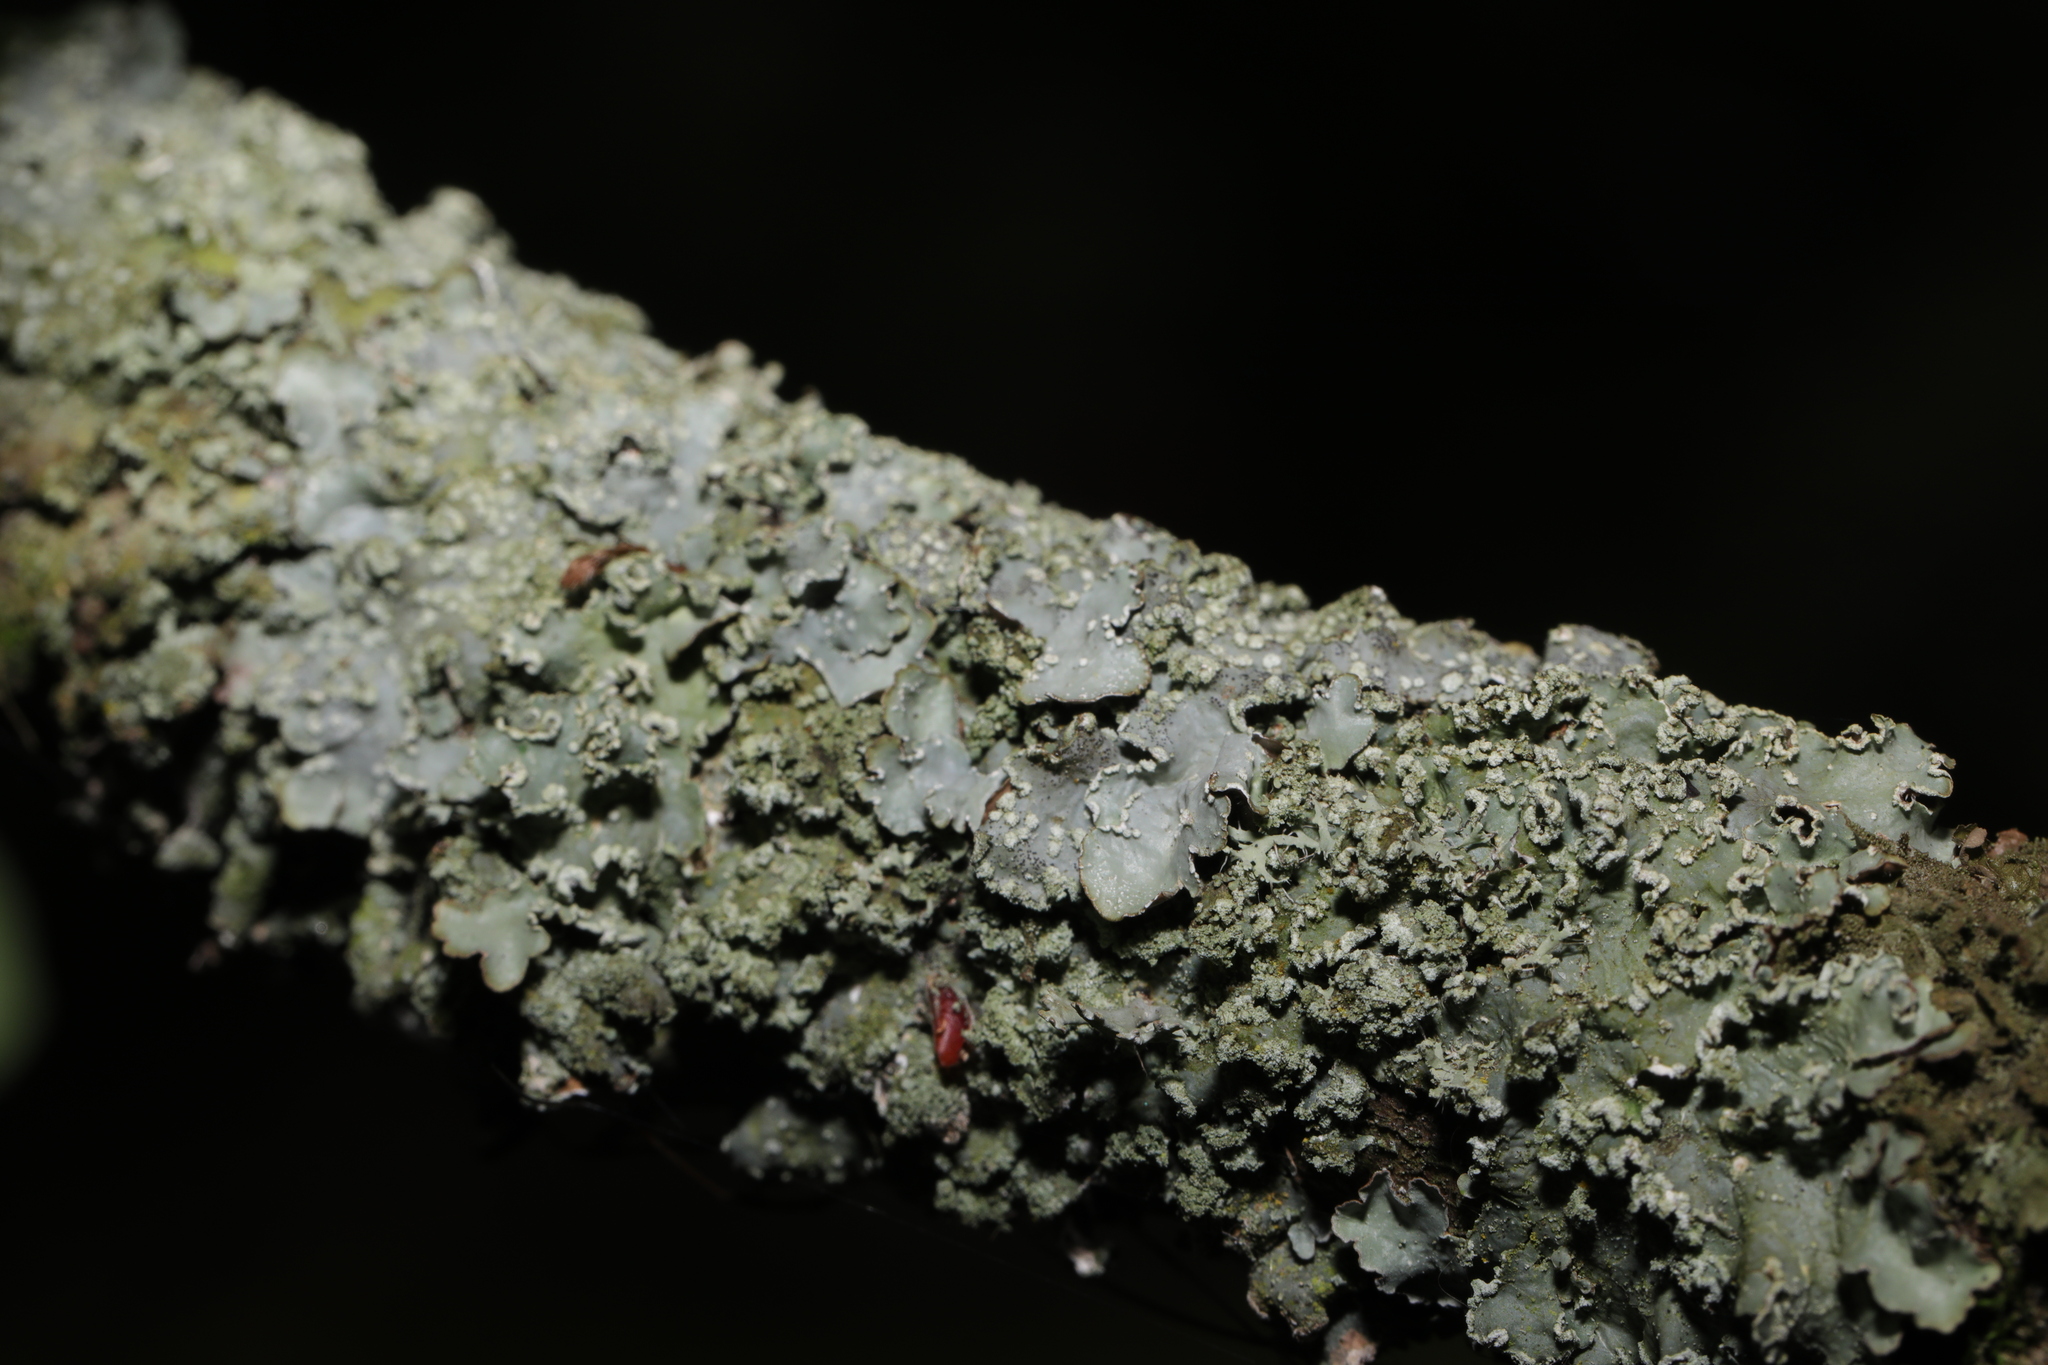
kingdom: Fungi
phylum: Ascomycota
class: Lecanoromycetes
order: Lecanorales
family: Parmeliaceae
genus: Punctelia
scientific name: Punctelia jeckeri
